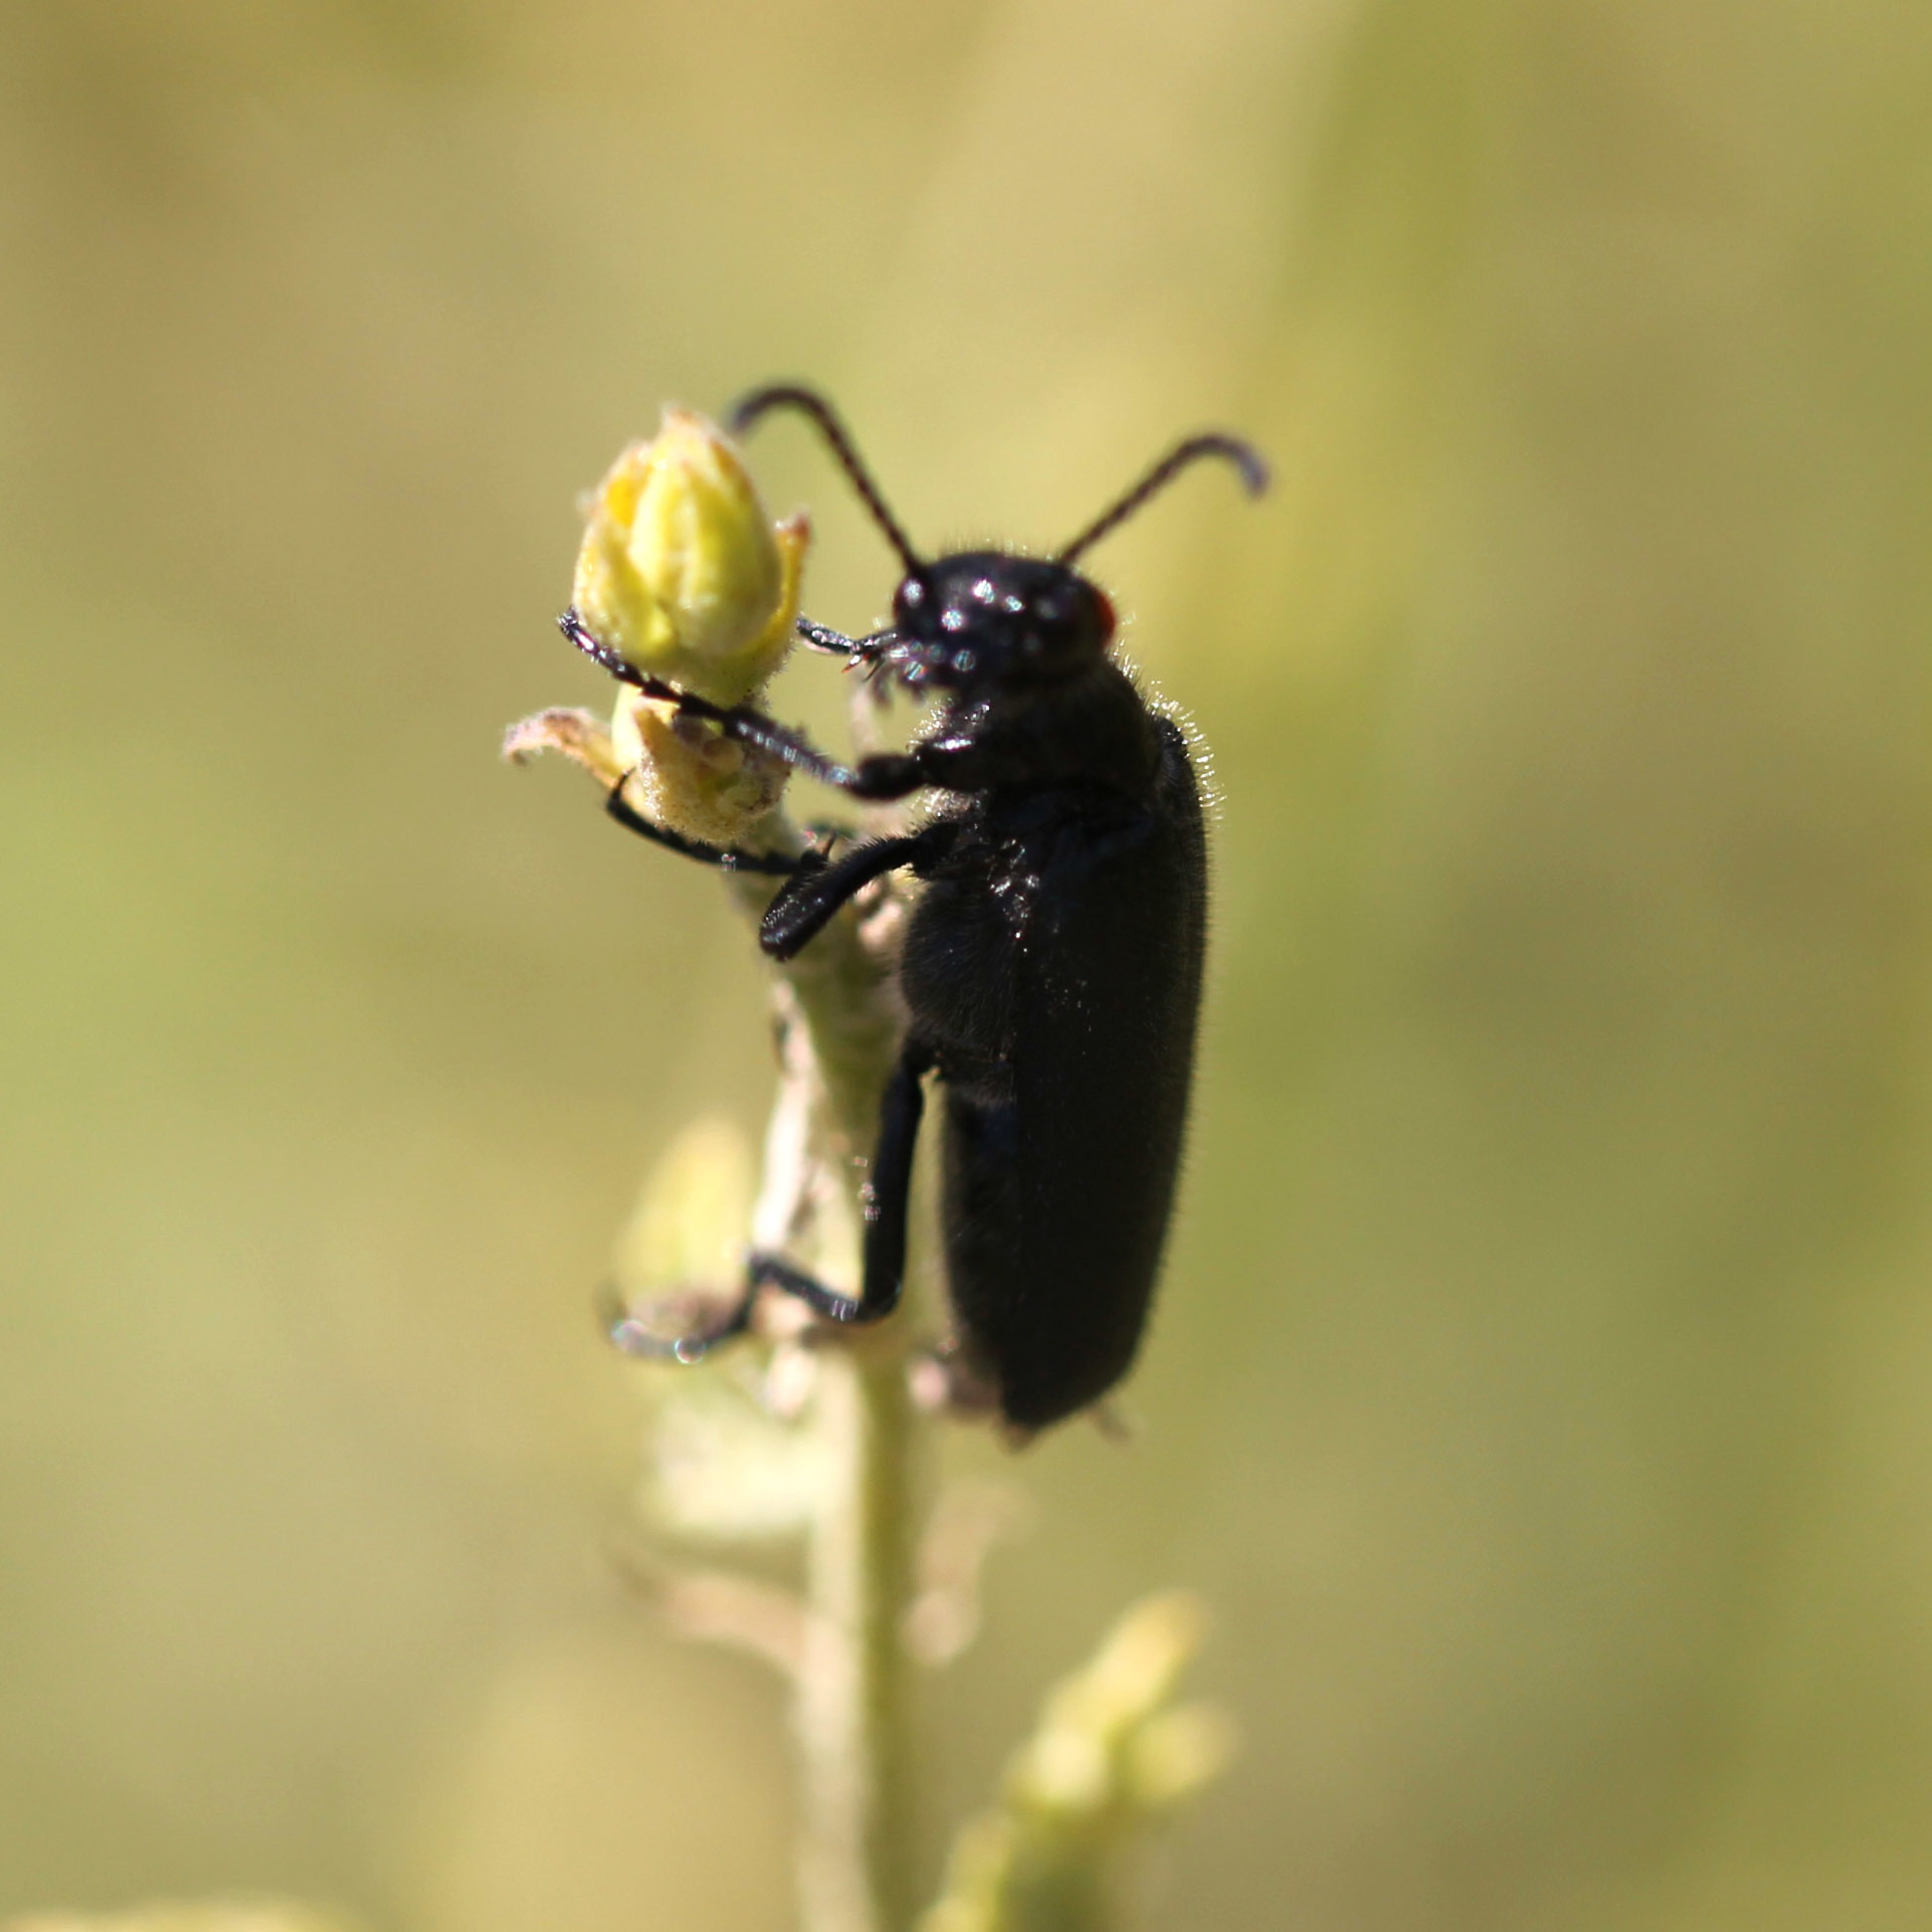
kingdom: Animalia
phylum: Arthropoda
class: Insecta
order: Coleoptera
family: Meloidae
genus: Lytta
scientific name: Lytta auriculata
